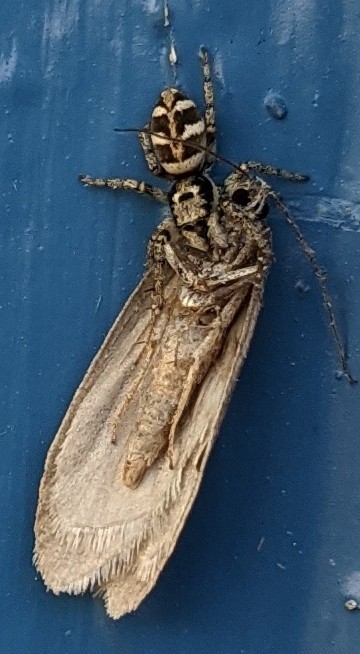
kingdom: Animalia
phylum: Arthropoda
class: Arachnida
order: Araneae
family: Salticidae
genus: Salticus
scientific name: Salticus scenicus
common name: Zebra jumper
